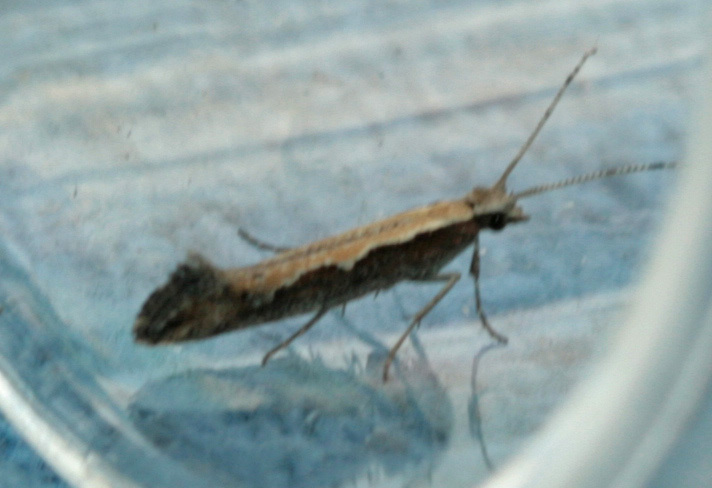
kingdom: Animalia
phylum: Arthropoda
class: Insecta
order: Lepidoptera
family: Plutellidae
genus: Plutella
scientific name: Plutella xylostella
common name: Diamond-back moth
